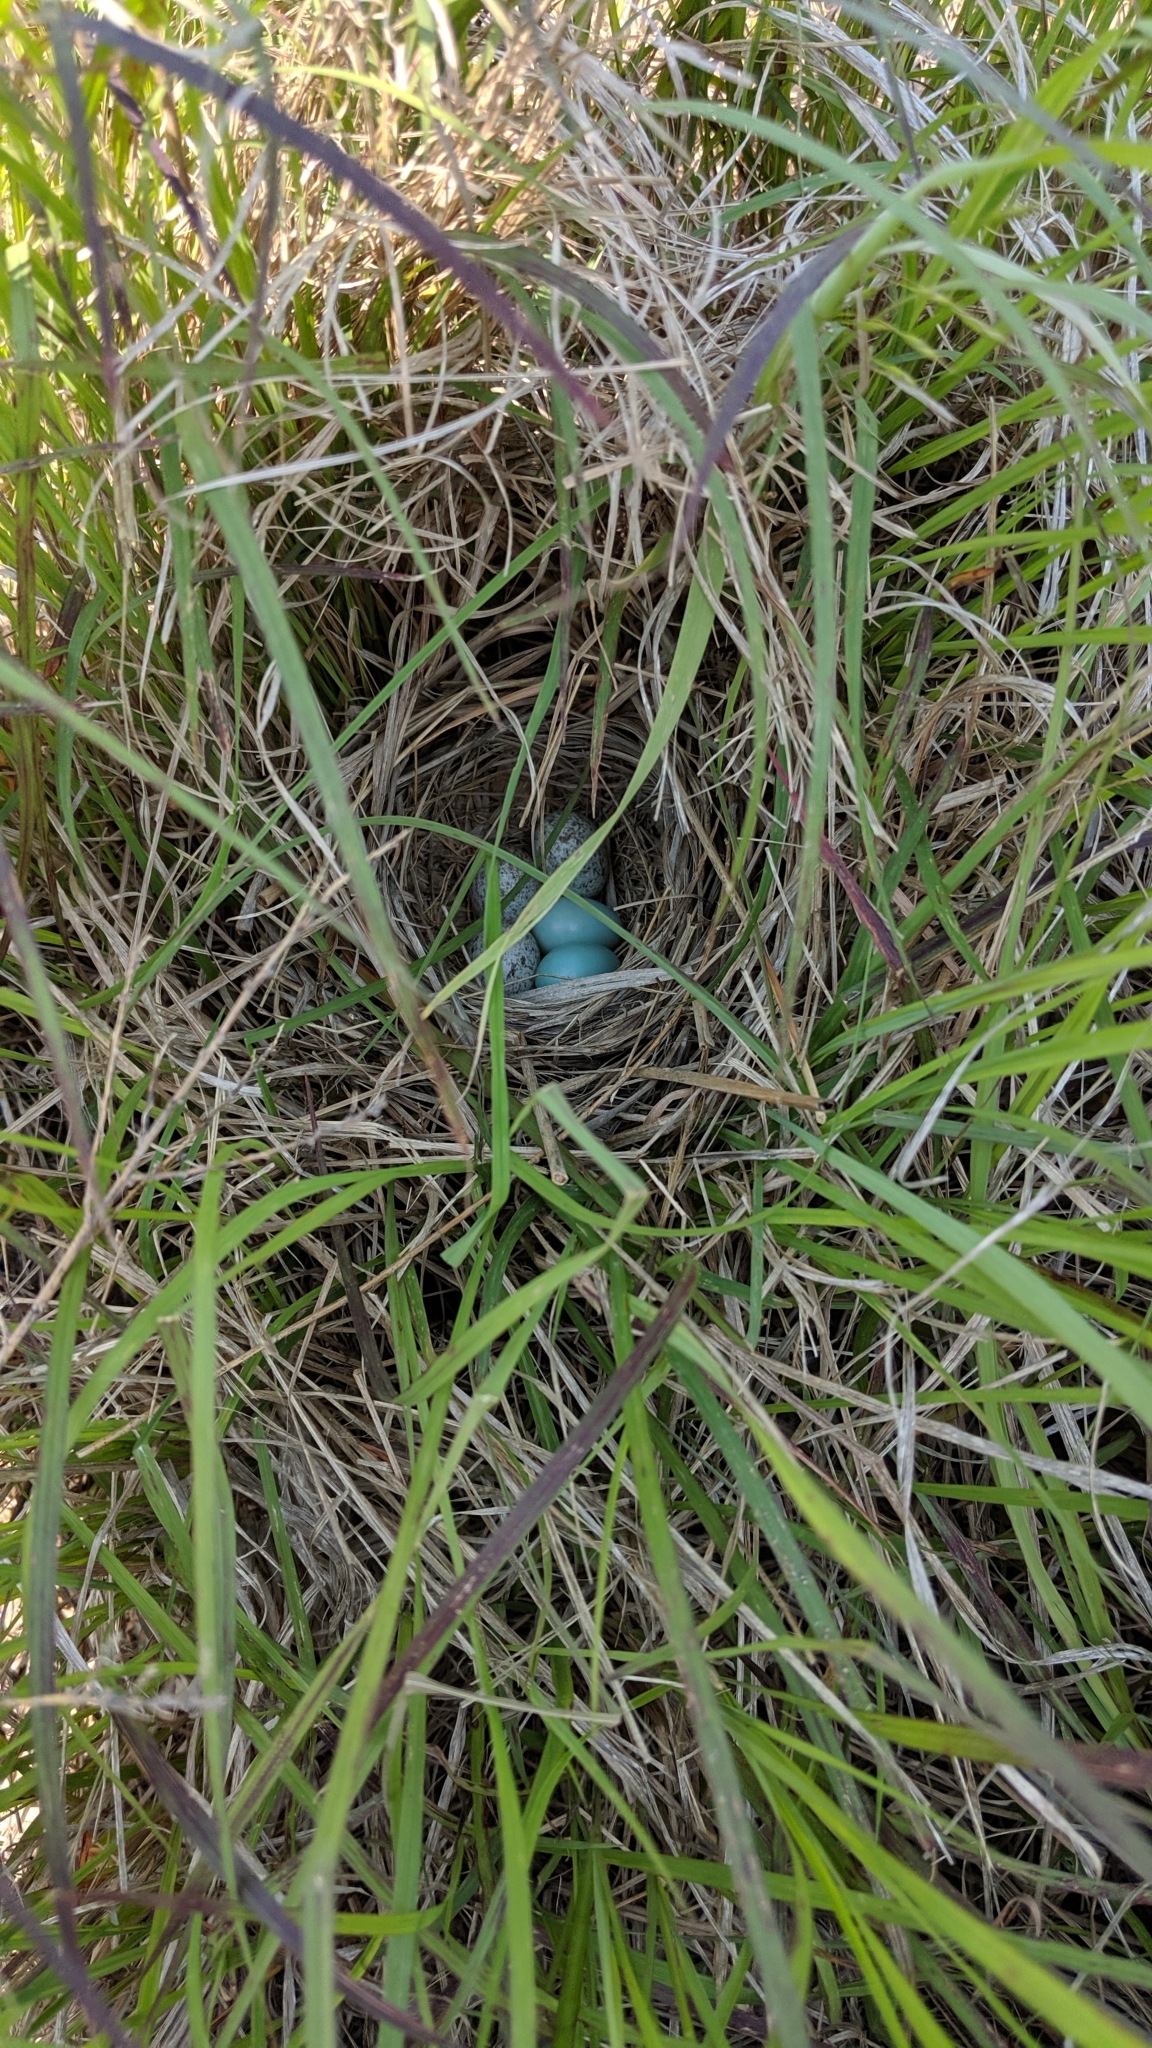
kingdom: Animalia
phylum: Chordata
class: Aves
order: Passeriformes
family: Icteridae
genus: Molothrus
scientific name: Molothrus ater
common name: Brown-headed cowbird
